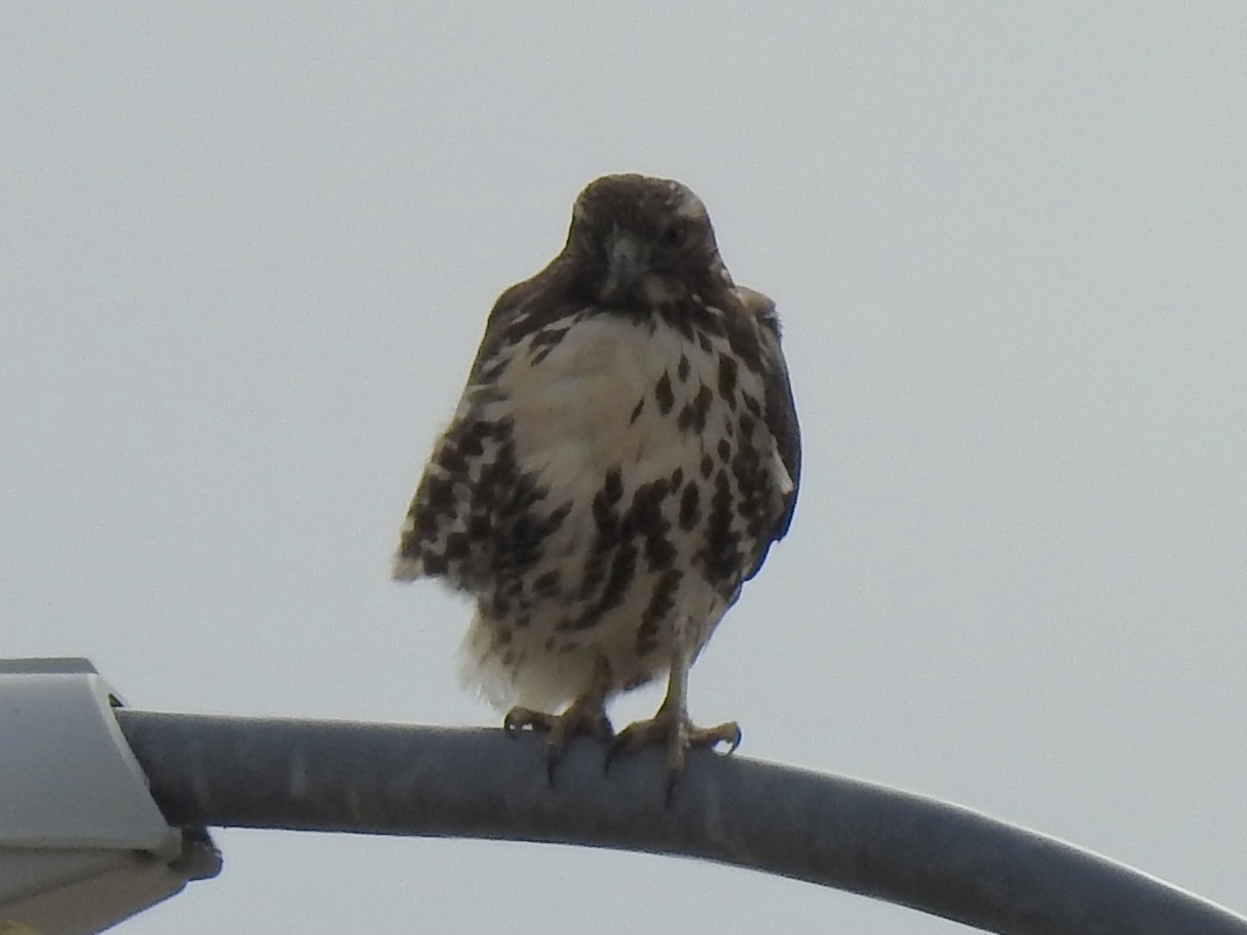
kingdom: Animalia
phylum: Chordata
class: Aves
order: Accipitriformes
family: Accipitridae
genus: Buteo
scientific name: Buteo jamaicensis
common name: Red-tailed hawk
